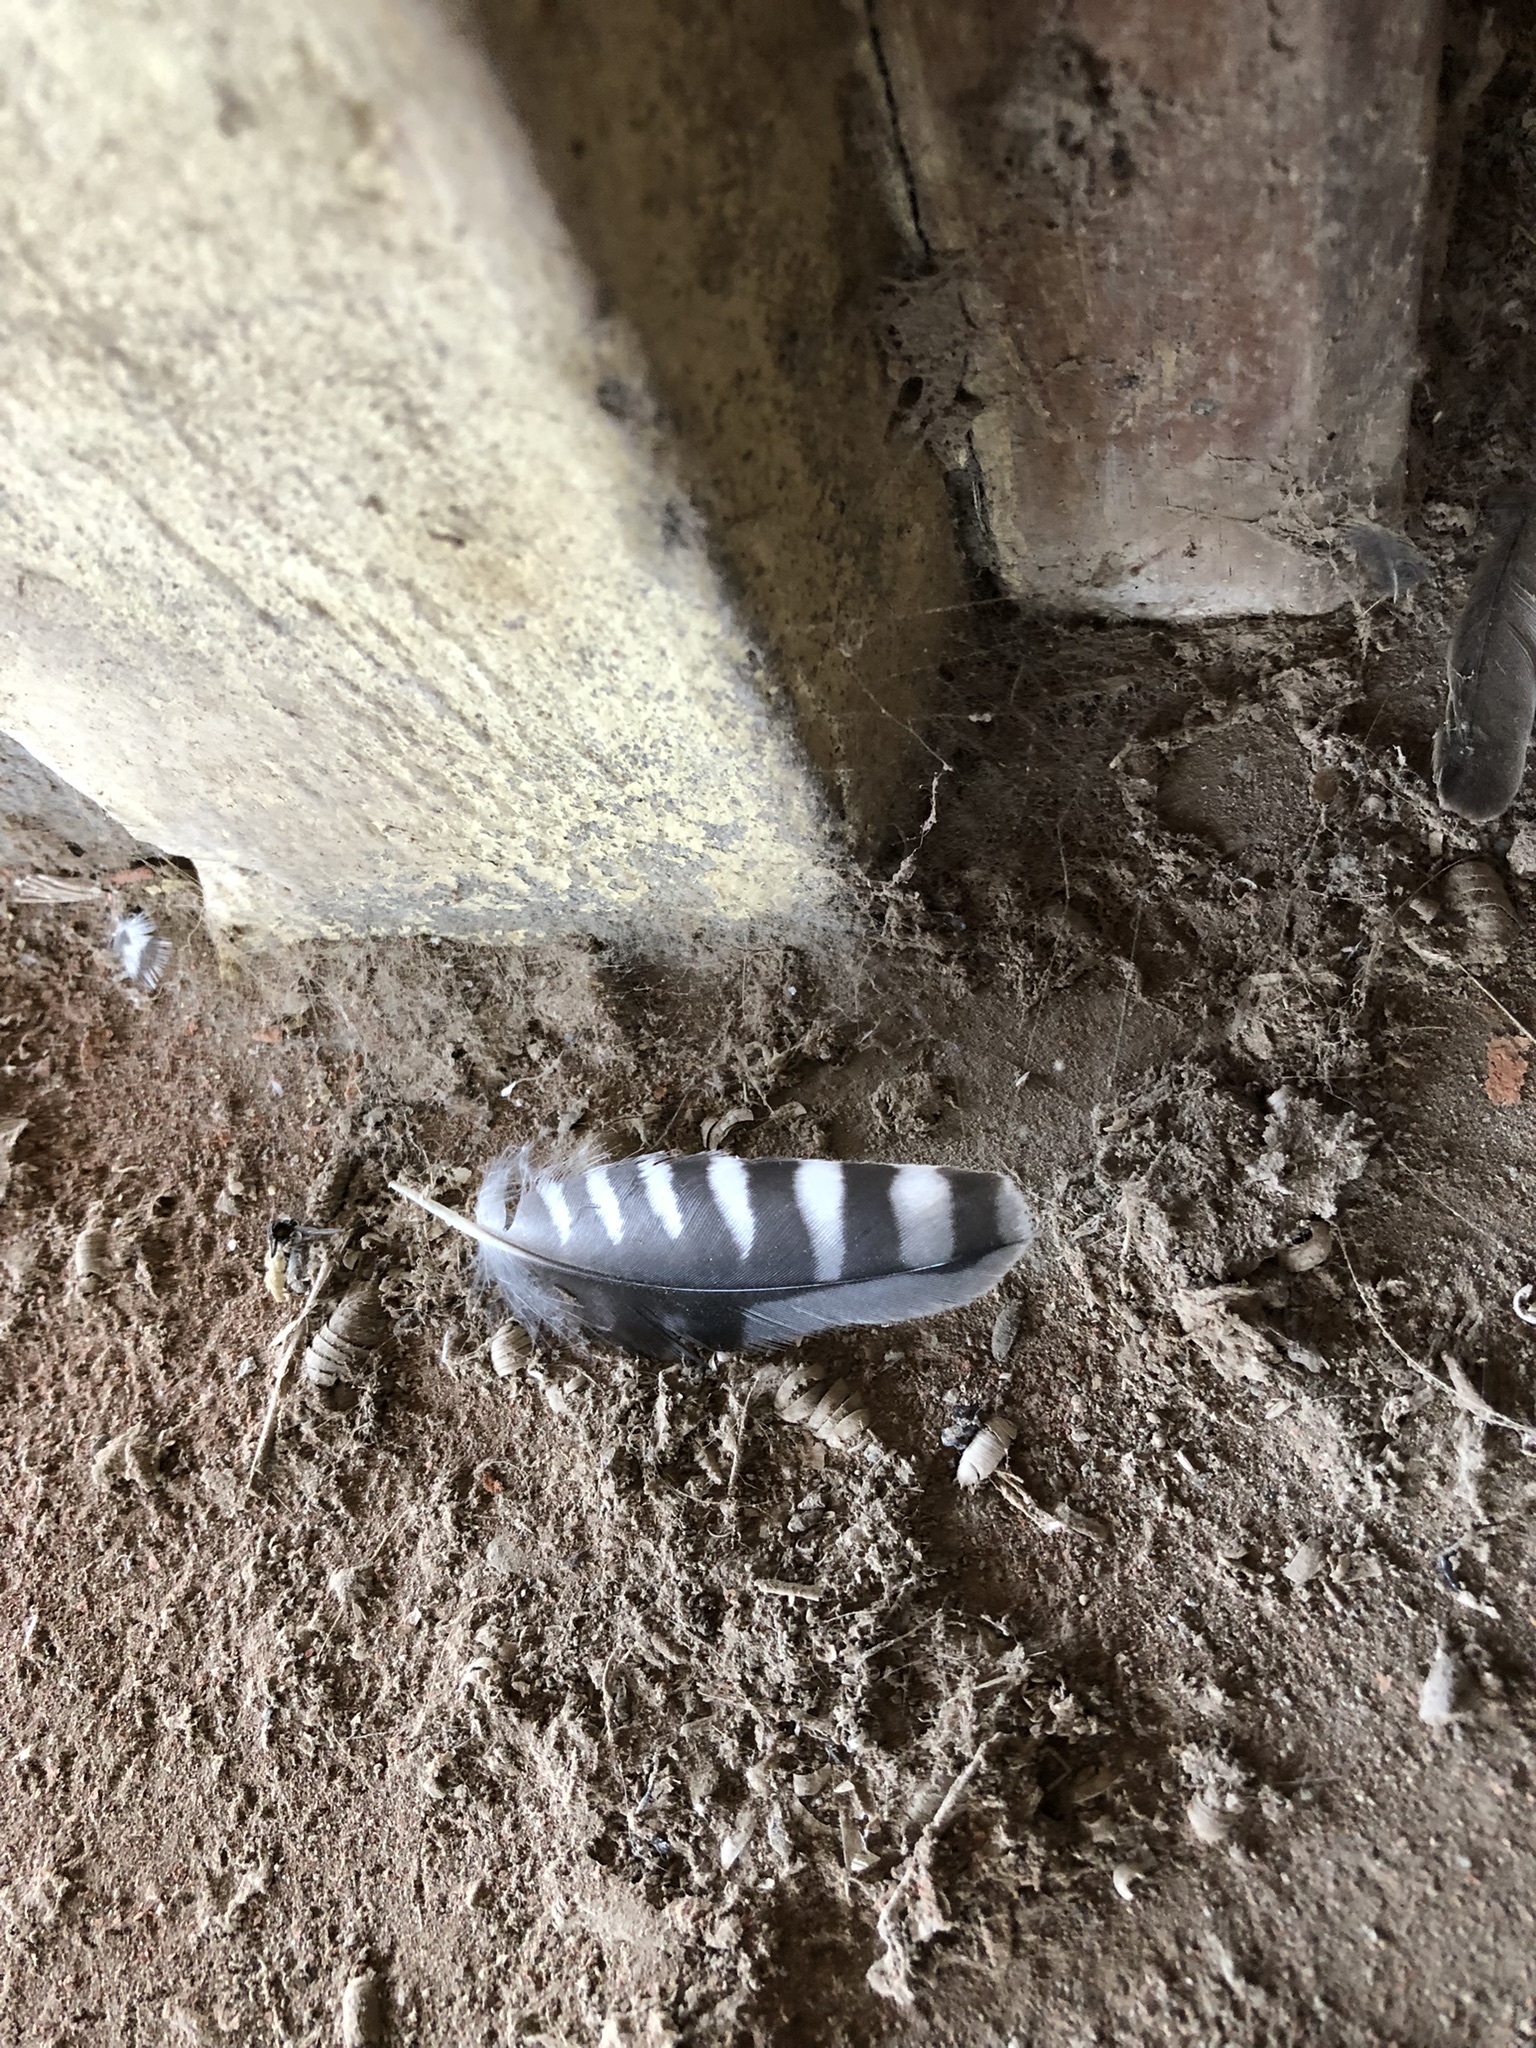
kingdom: Animalia
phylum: Chordata
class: Aves
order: Falconiformes
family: Falconidae
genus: Falco
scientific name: Falco sparverius
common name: American kestrel
